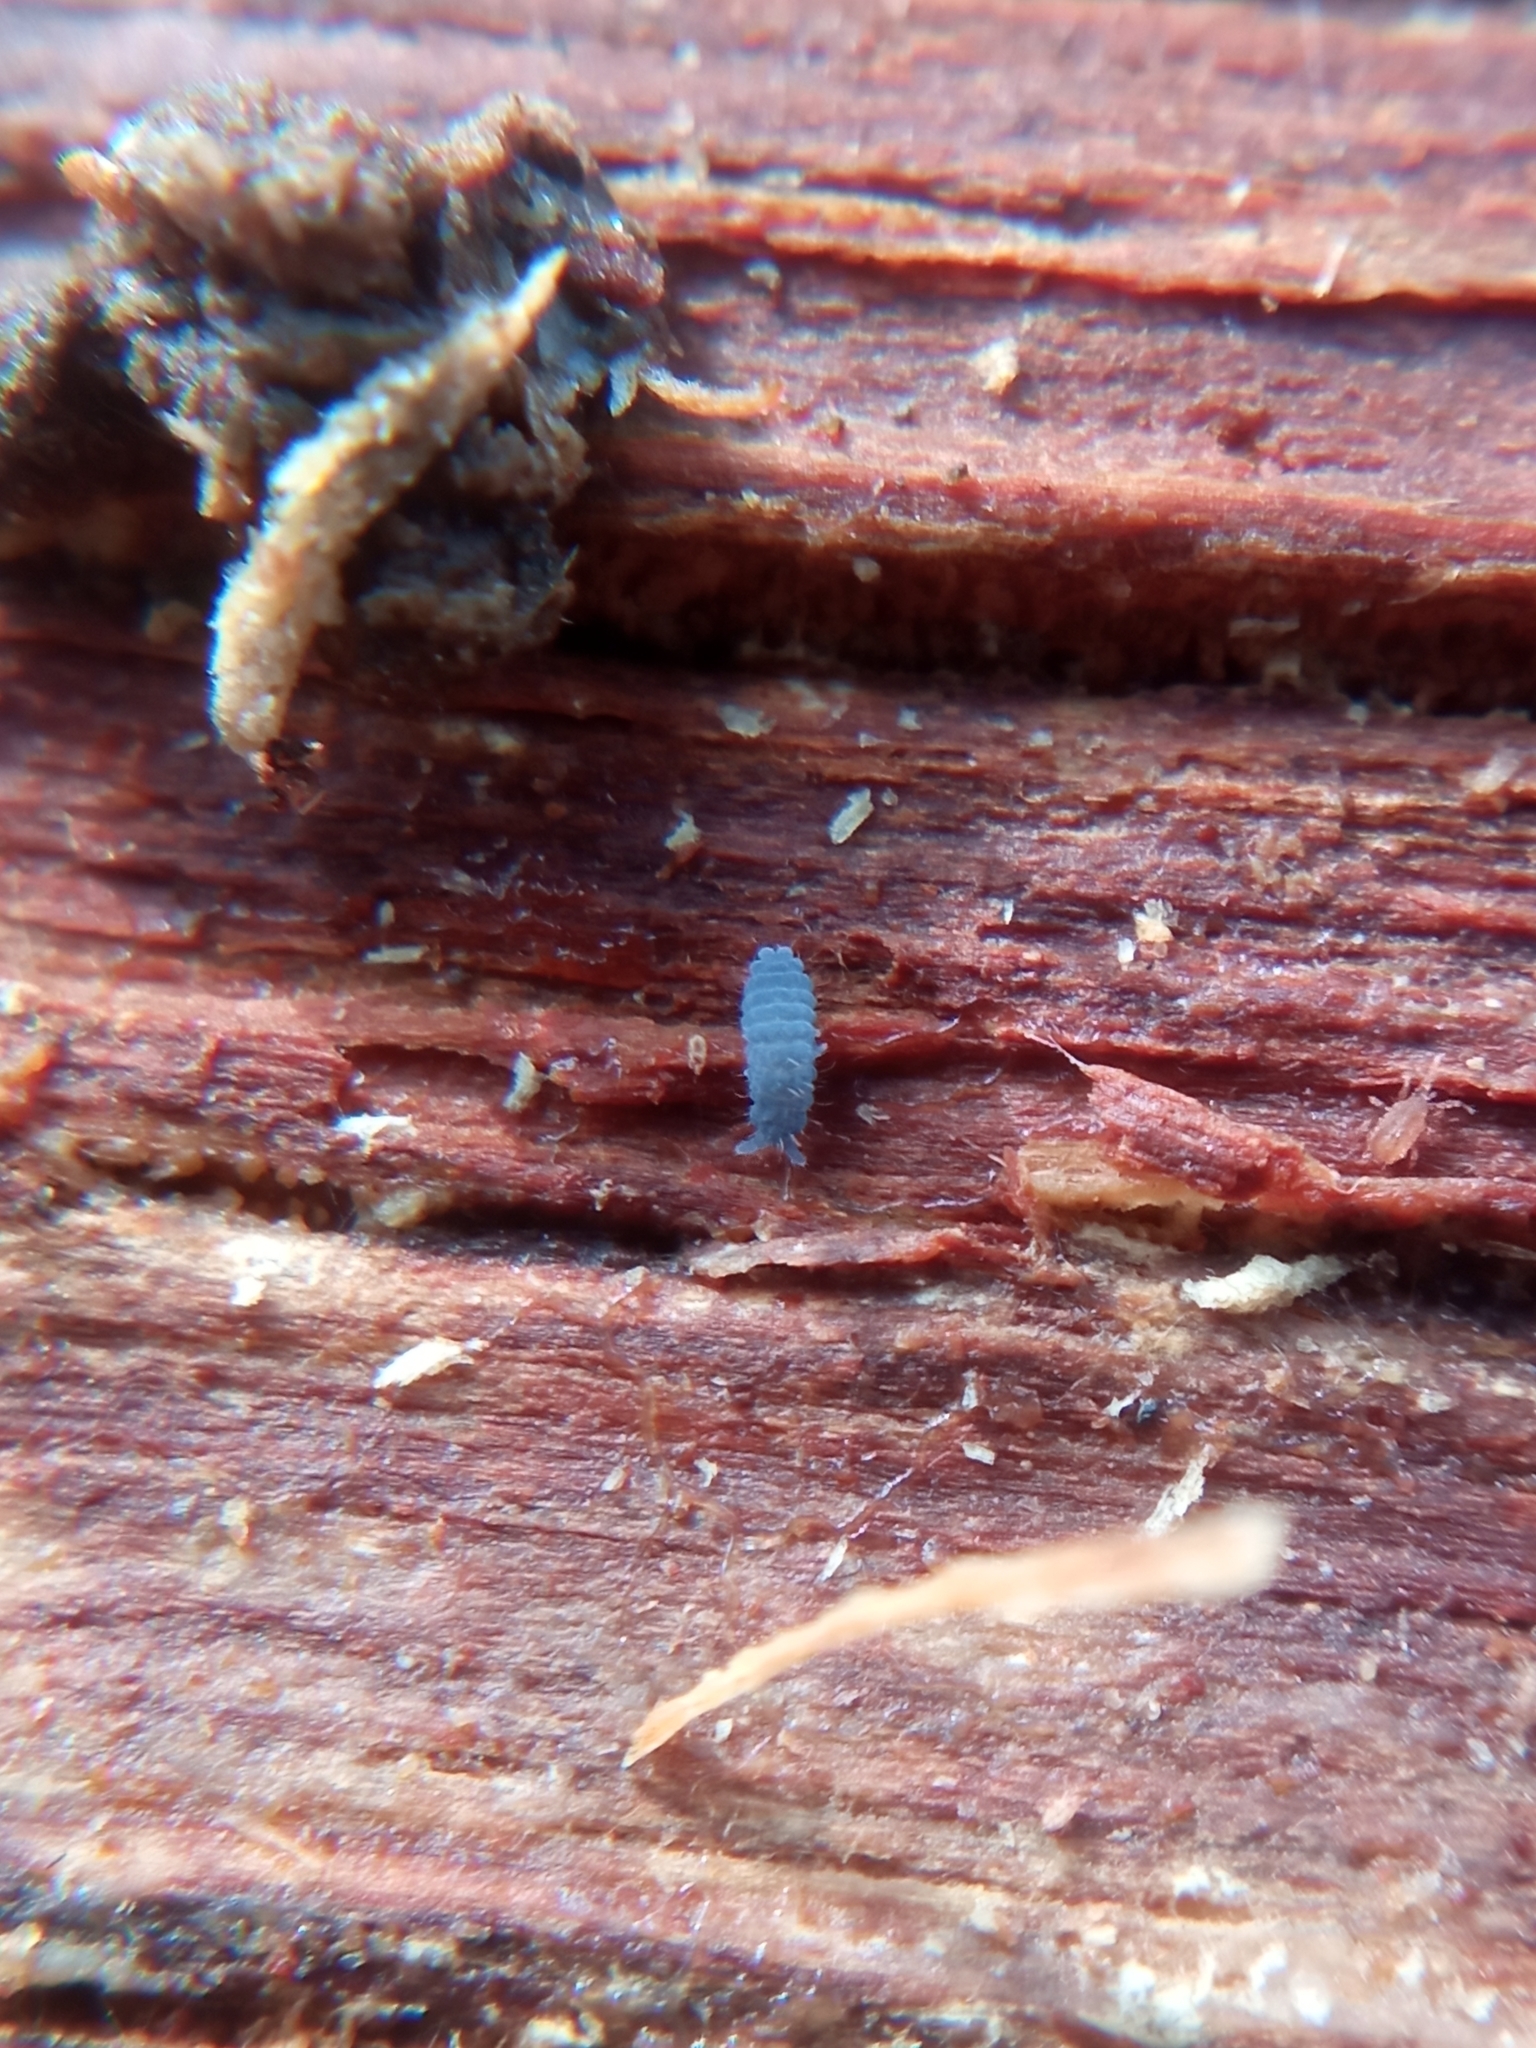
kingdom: Animalia
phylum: Arthropoda
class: Collembola
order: Poduromorpha
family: Neanuridae
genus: Neanura
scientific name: Neanura muscorum
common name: Springtail
